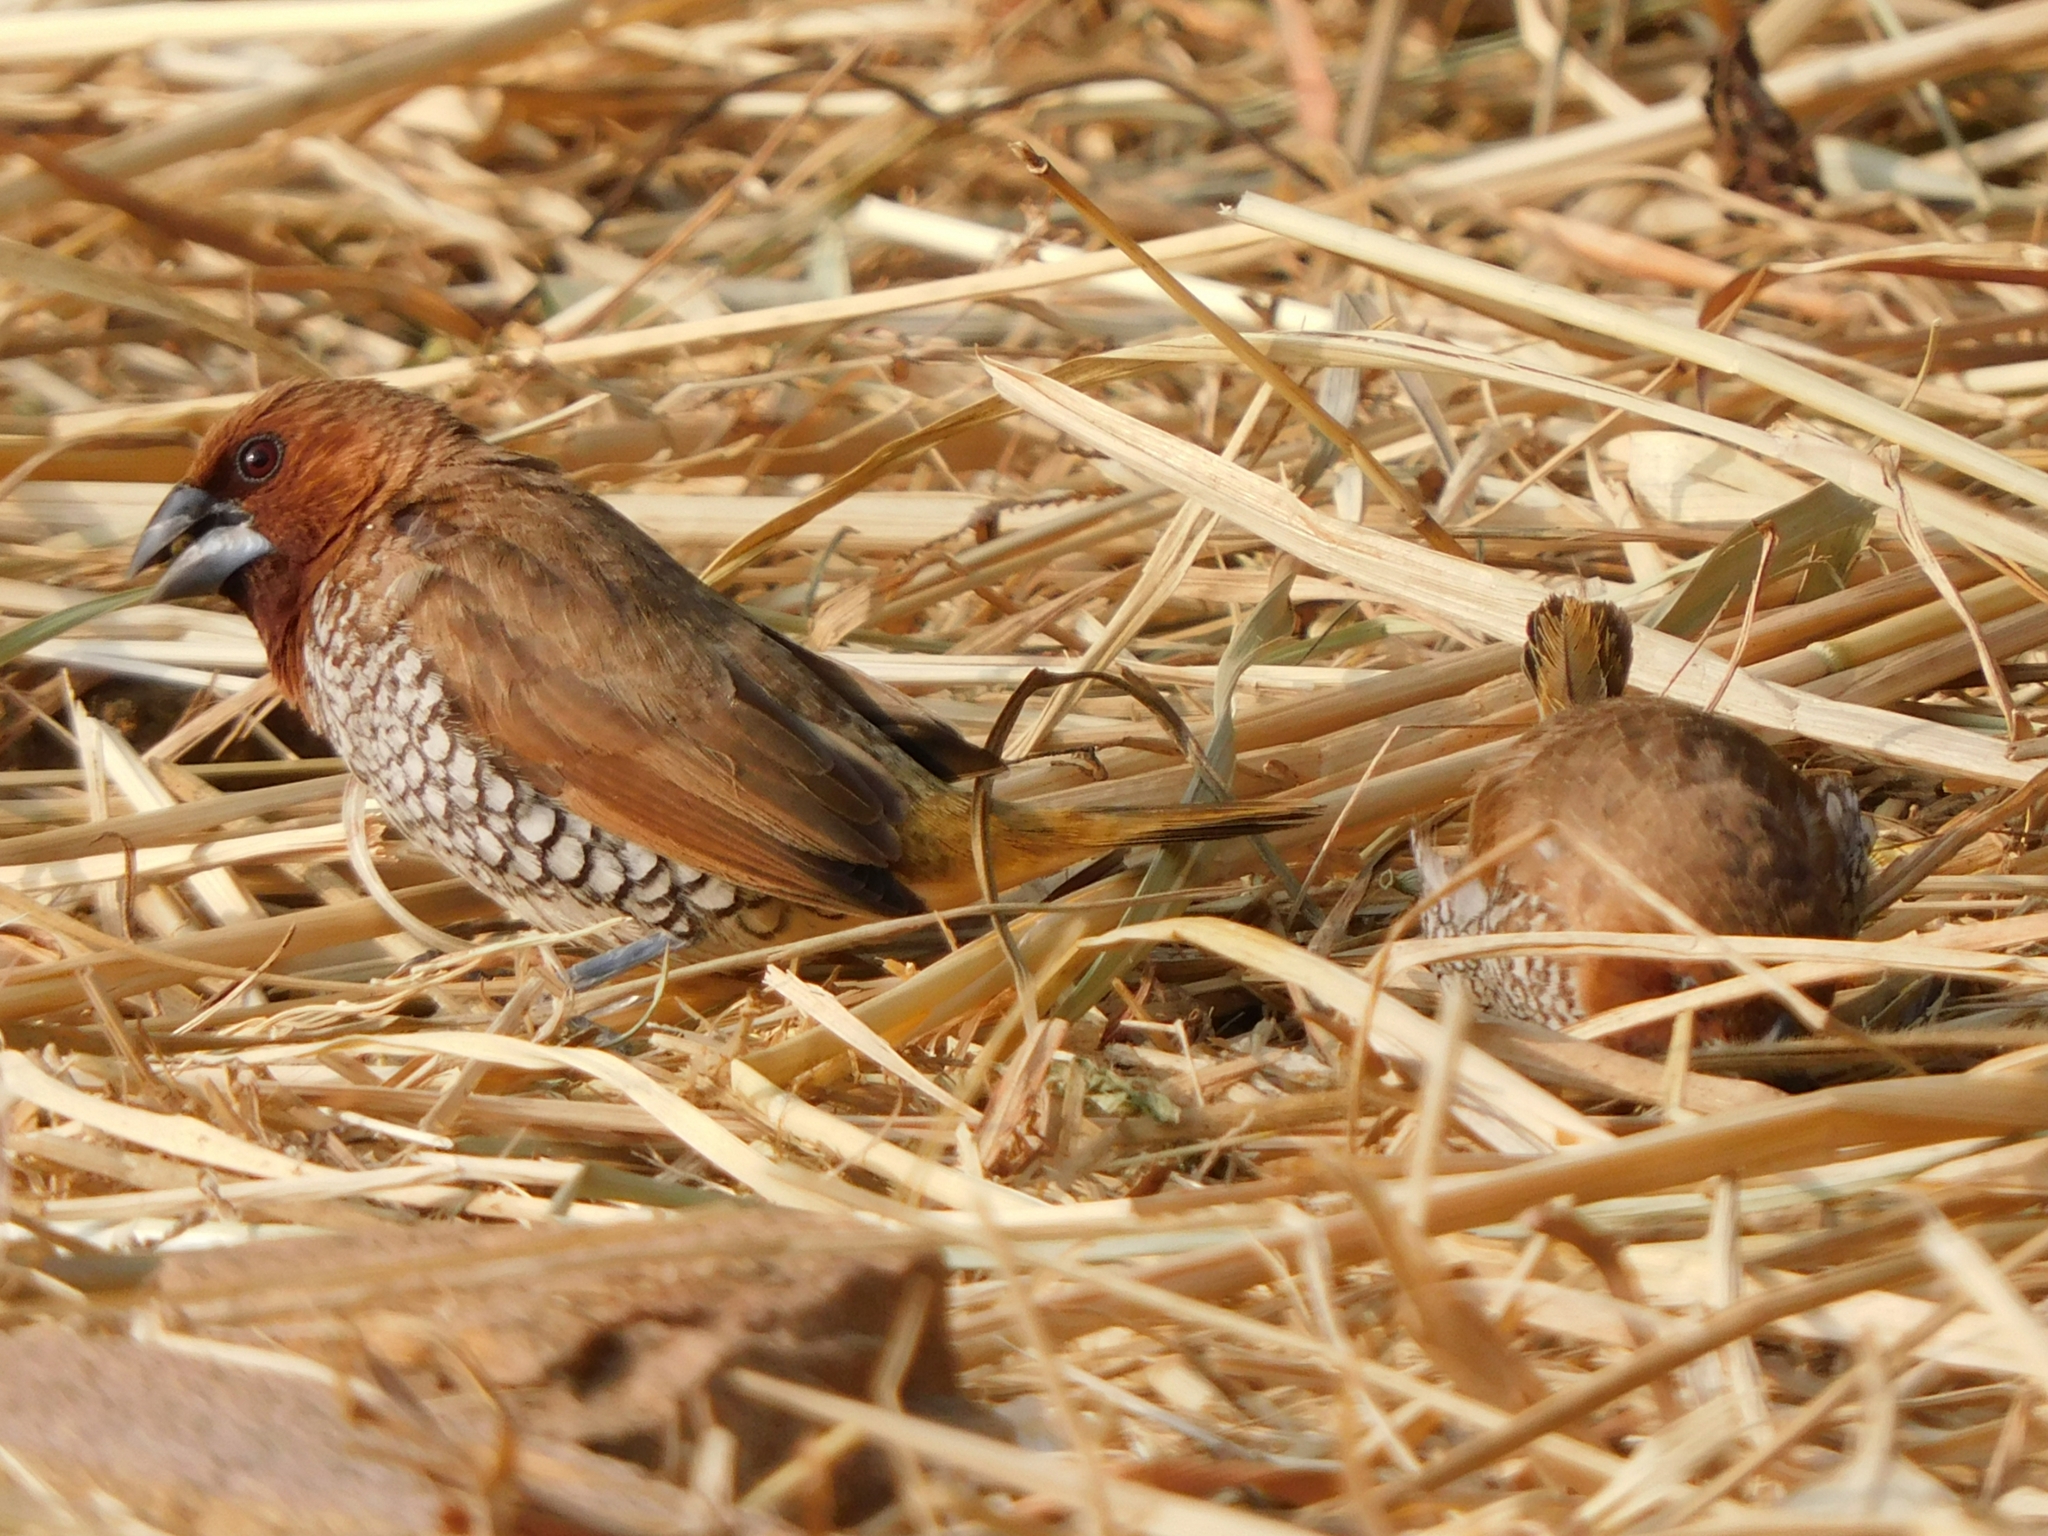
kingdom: Animalia
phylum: Chordata
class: Aves
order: Passeriformes
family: Estrildidae
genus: Lonchura
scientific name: Lonchura punctulata
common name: Scaly-breasted munia
